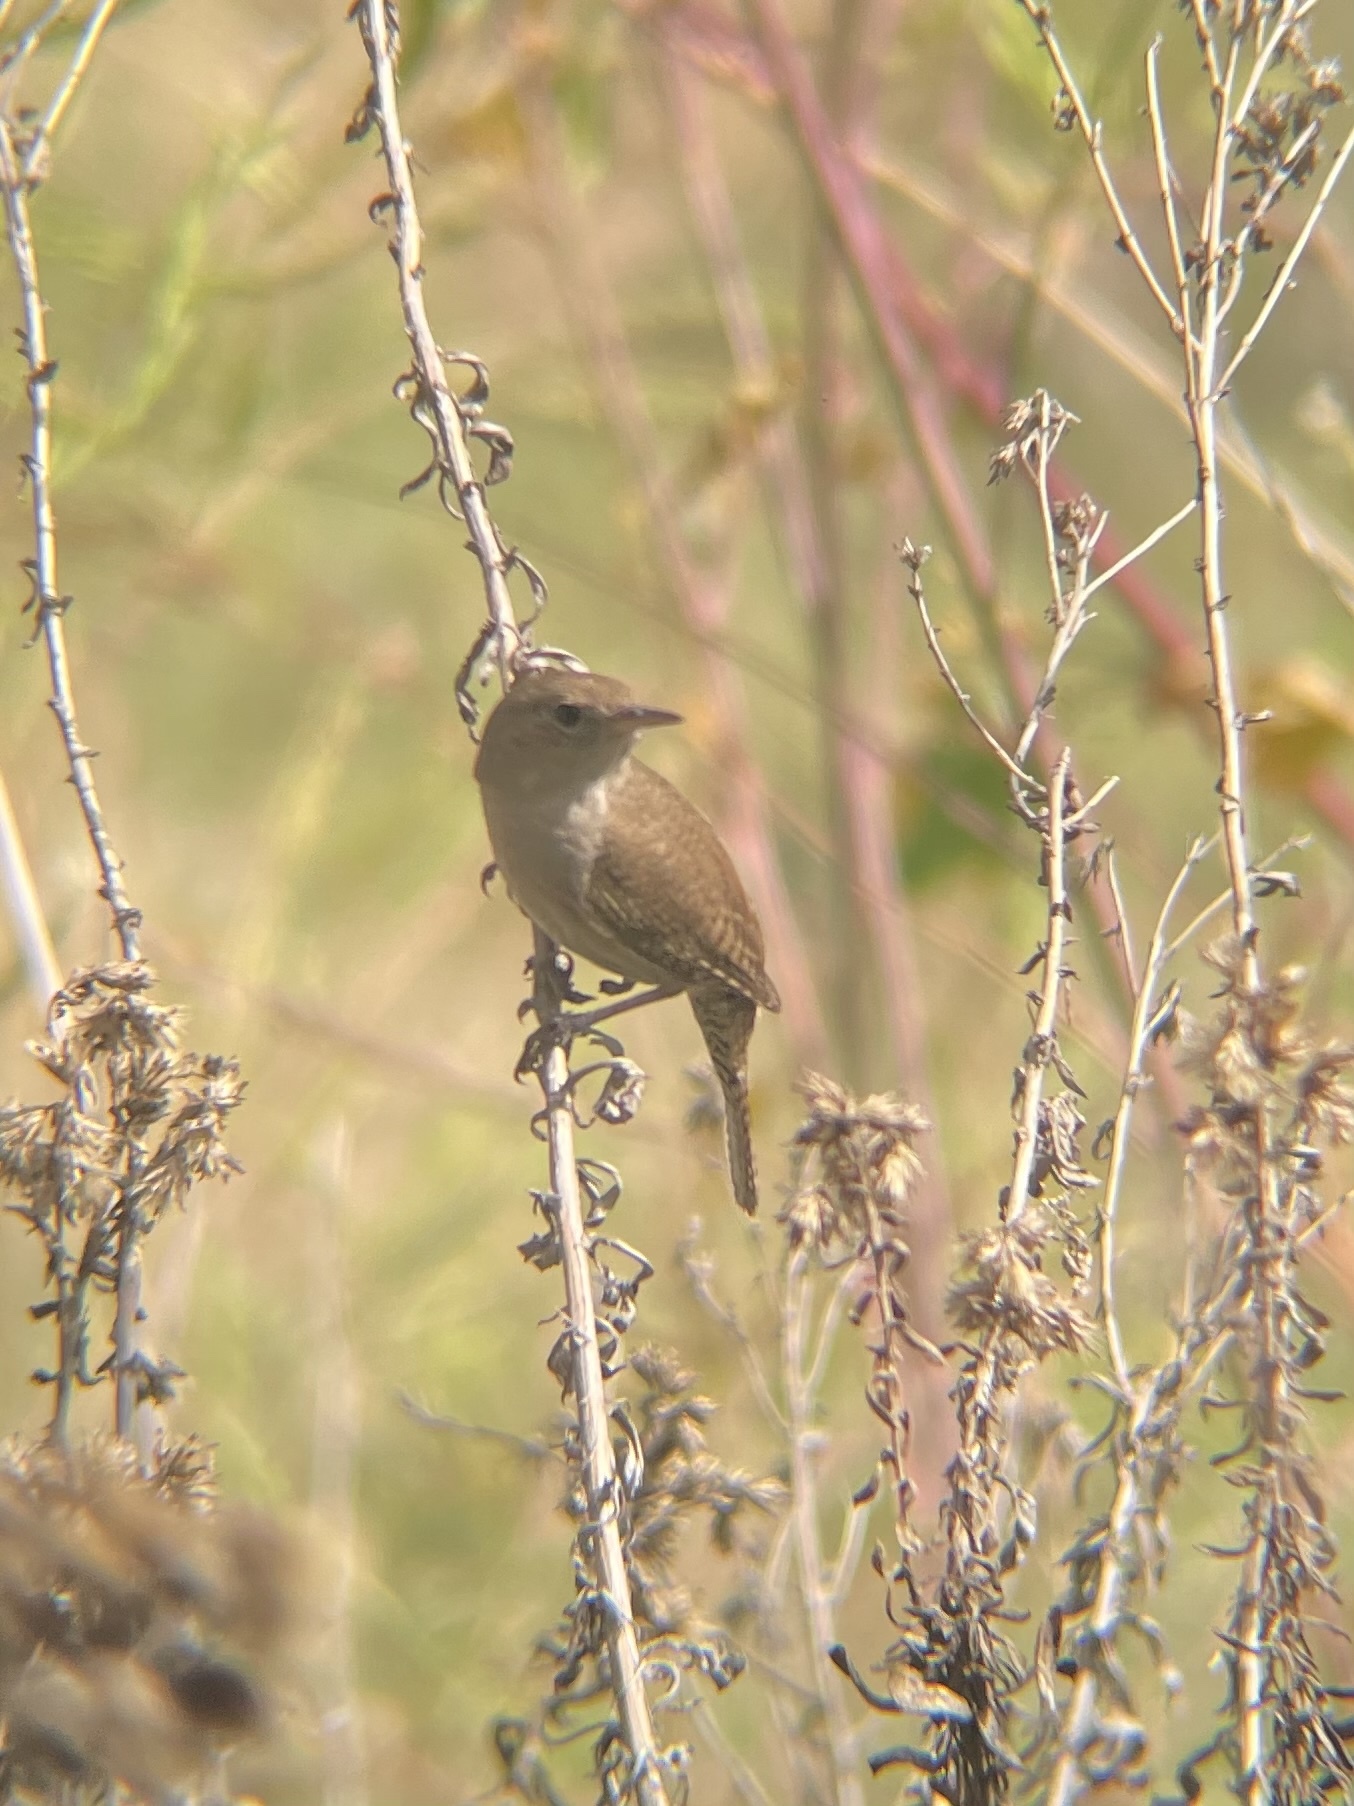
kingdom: Animalia
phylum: Chordata
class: Aves
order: Passeriformes
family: Troglodytidae
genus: Troglodytes
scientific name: Troglodytes aedon
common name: House wren
